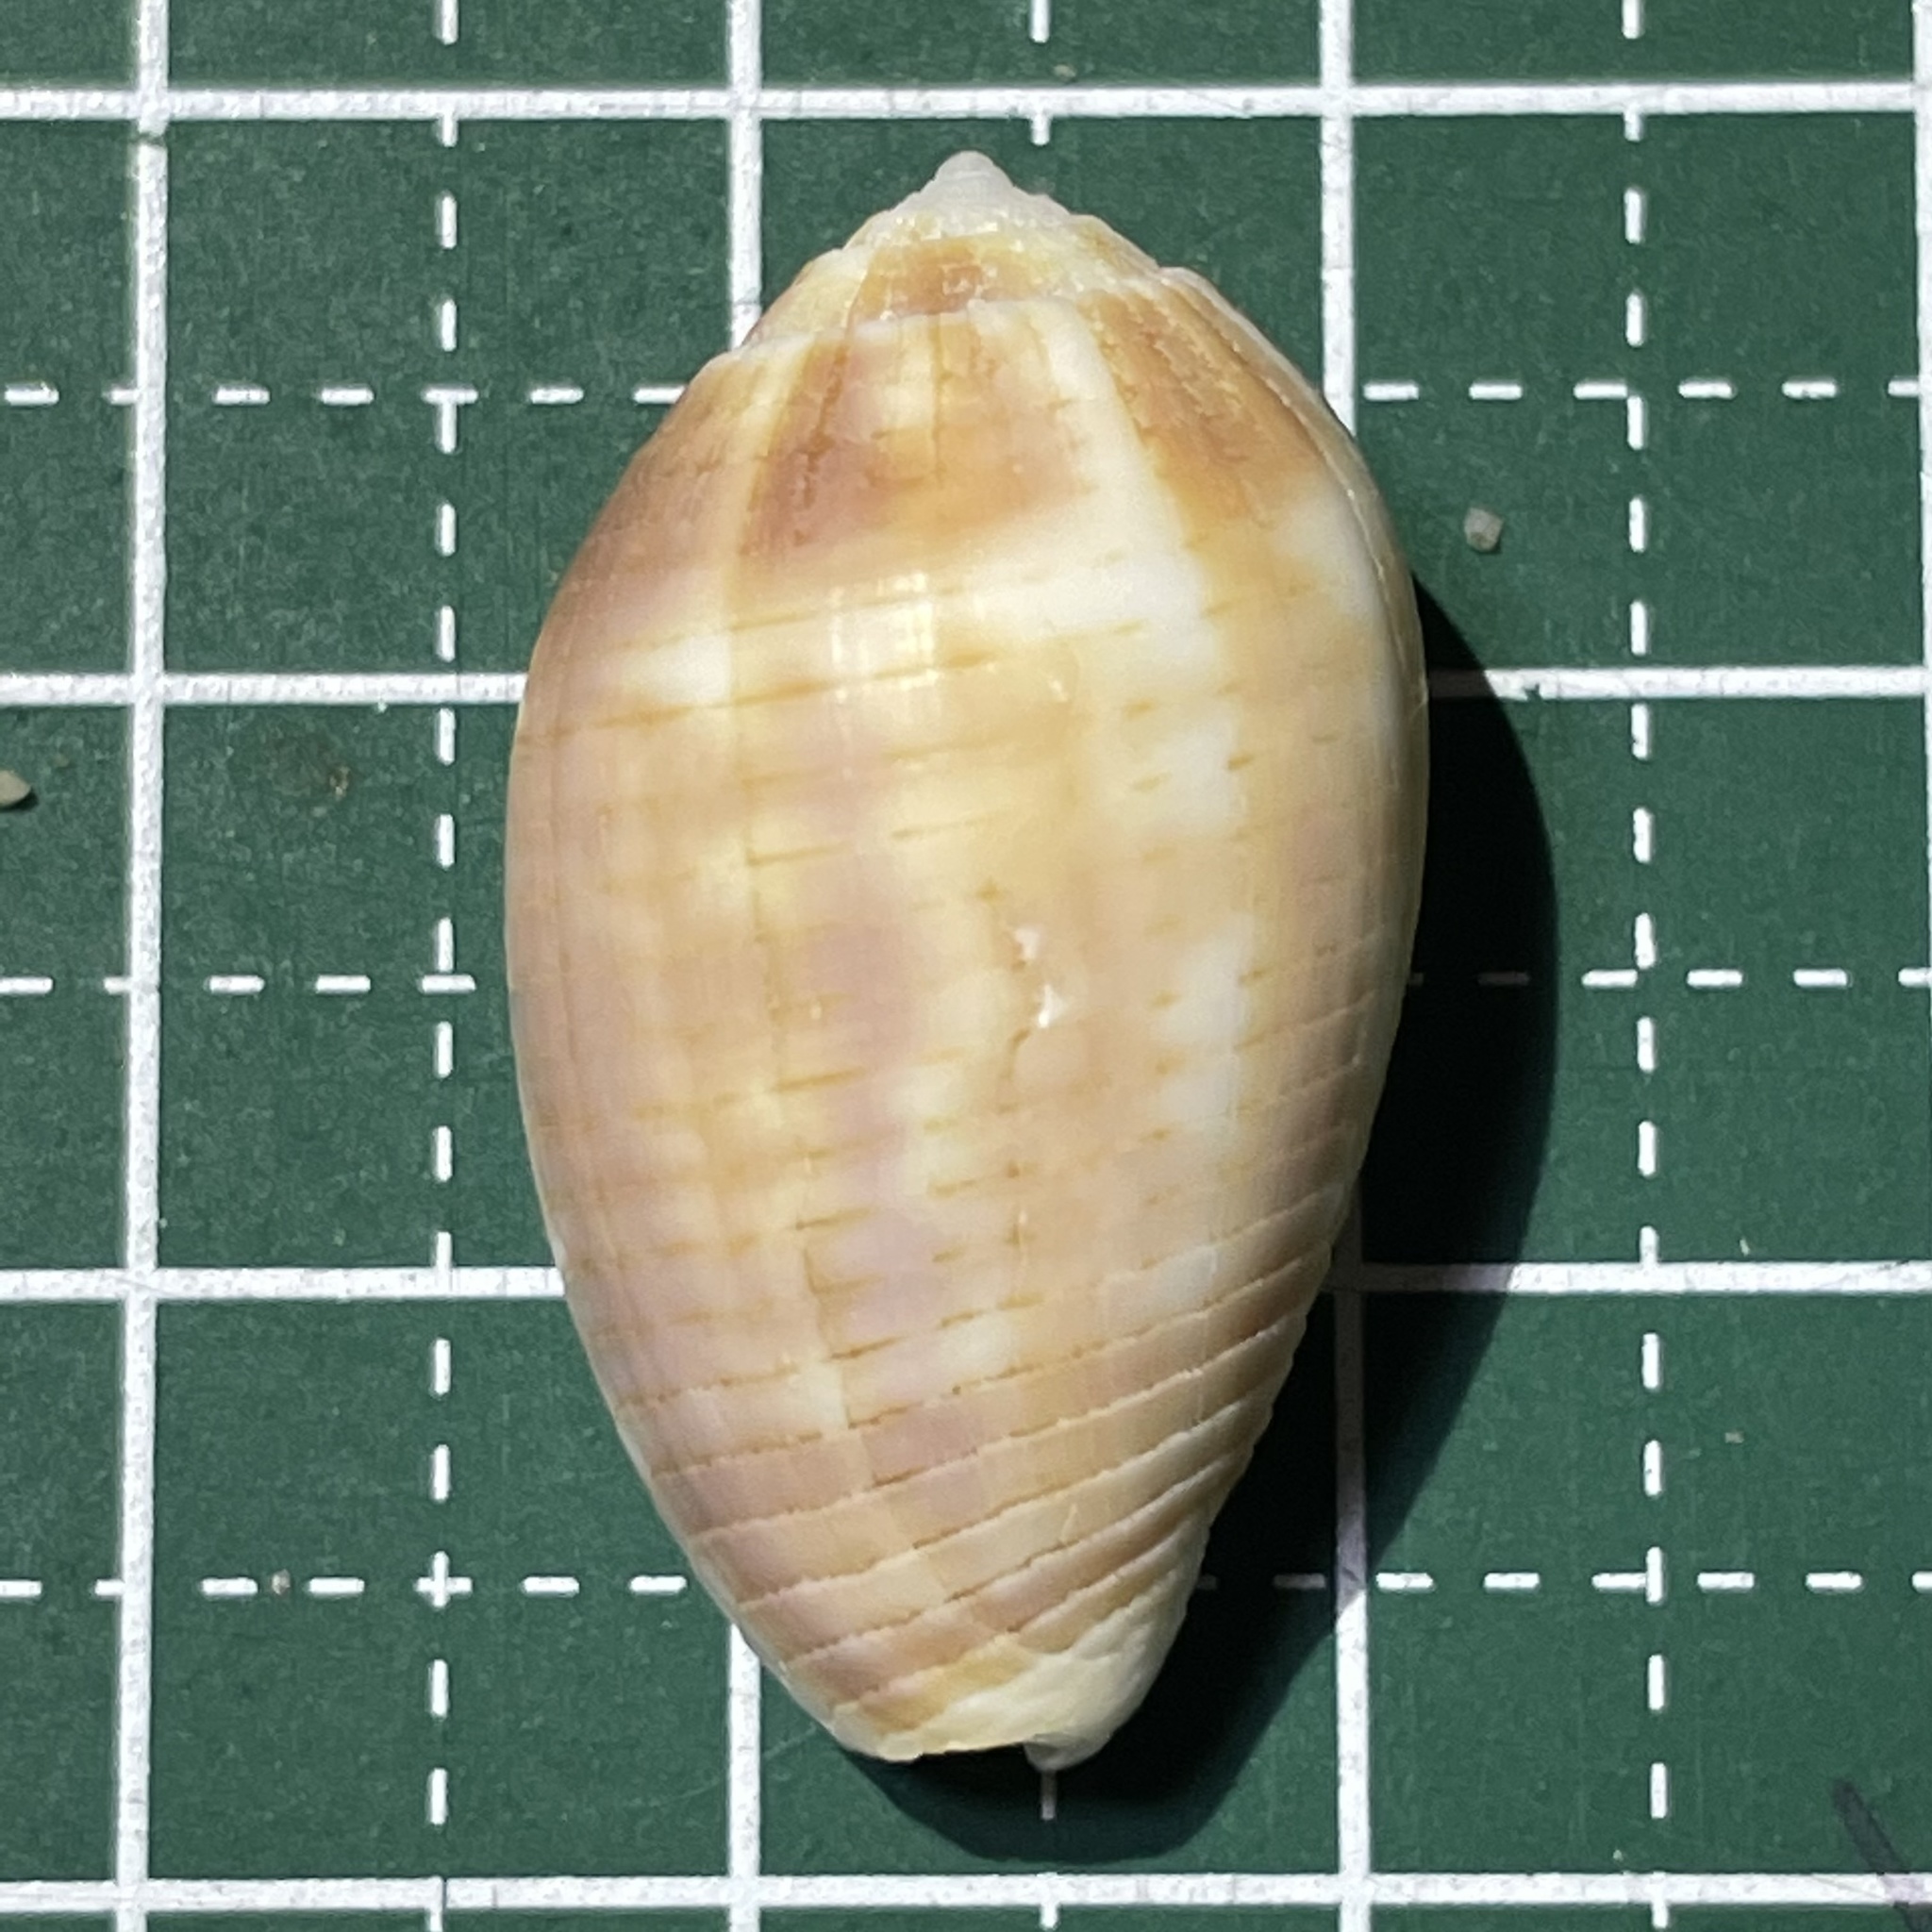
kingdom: Animalia
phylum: Mollusca
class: Gastropoda
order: Neogastropoda
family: Mitridae
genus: Pterygia
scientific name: Pterygia dactylus
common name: Finger miter
